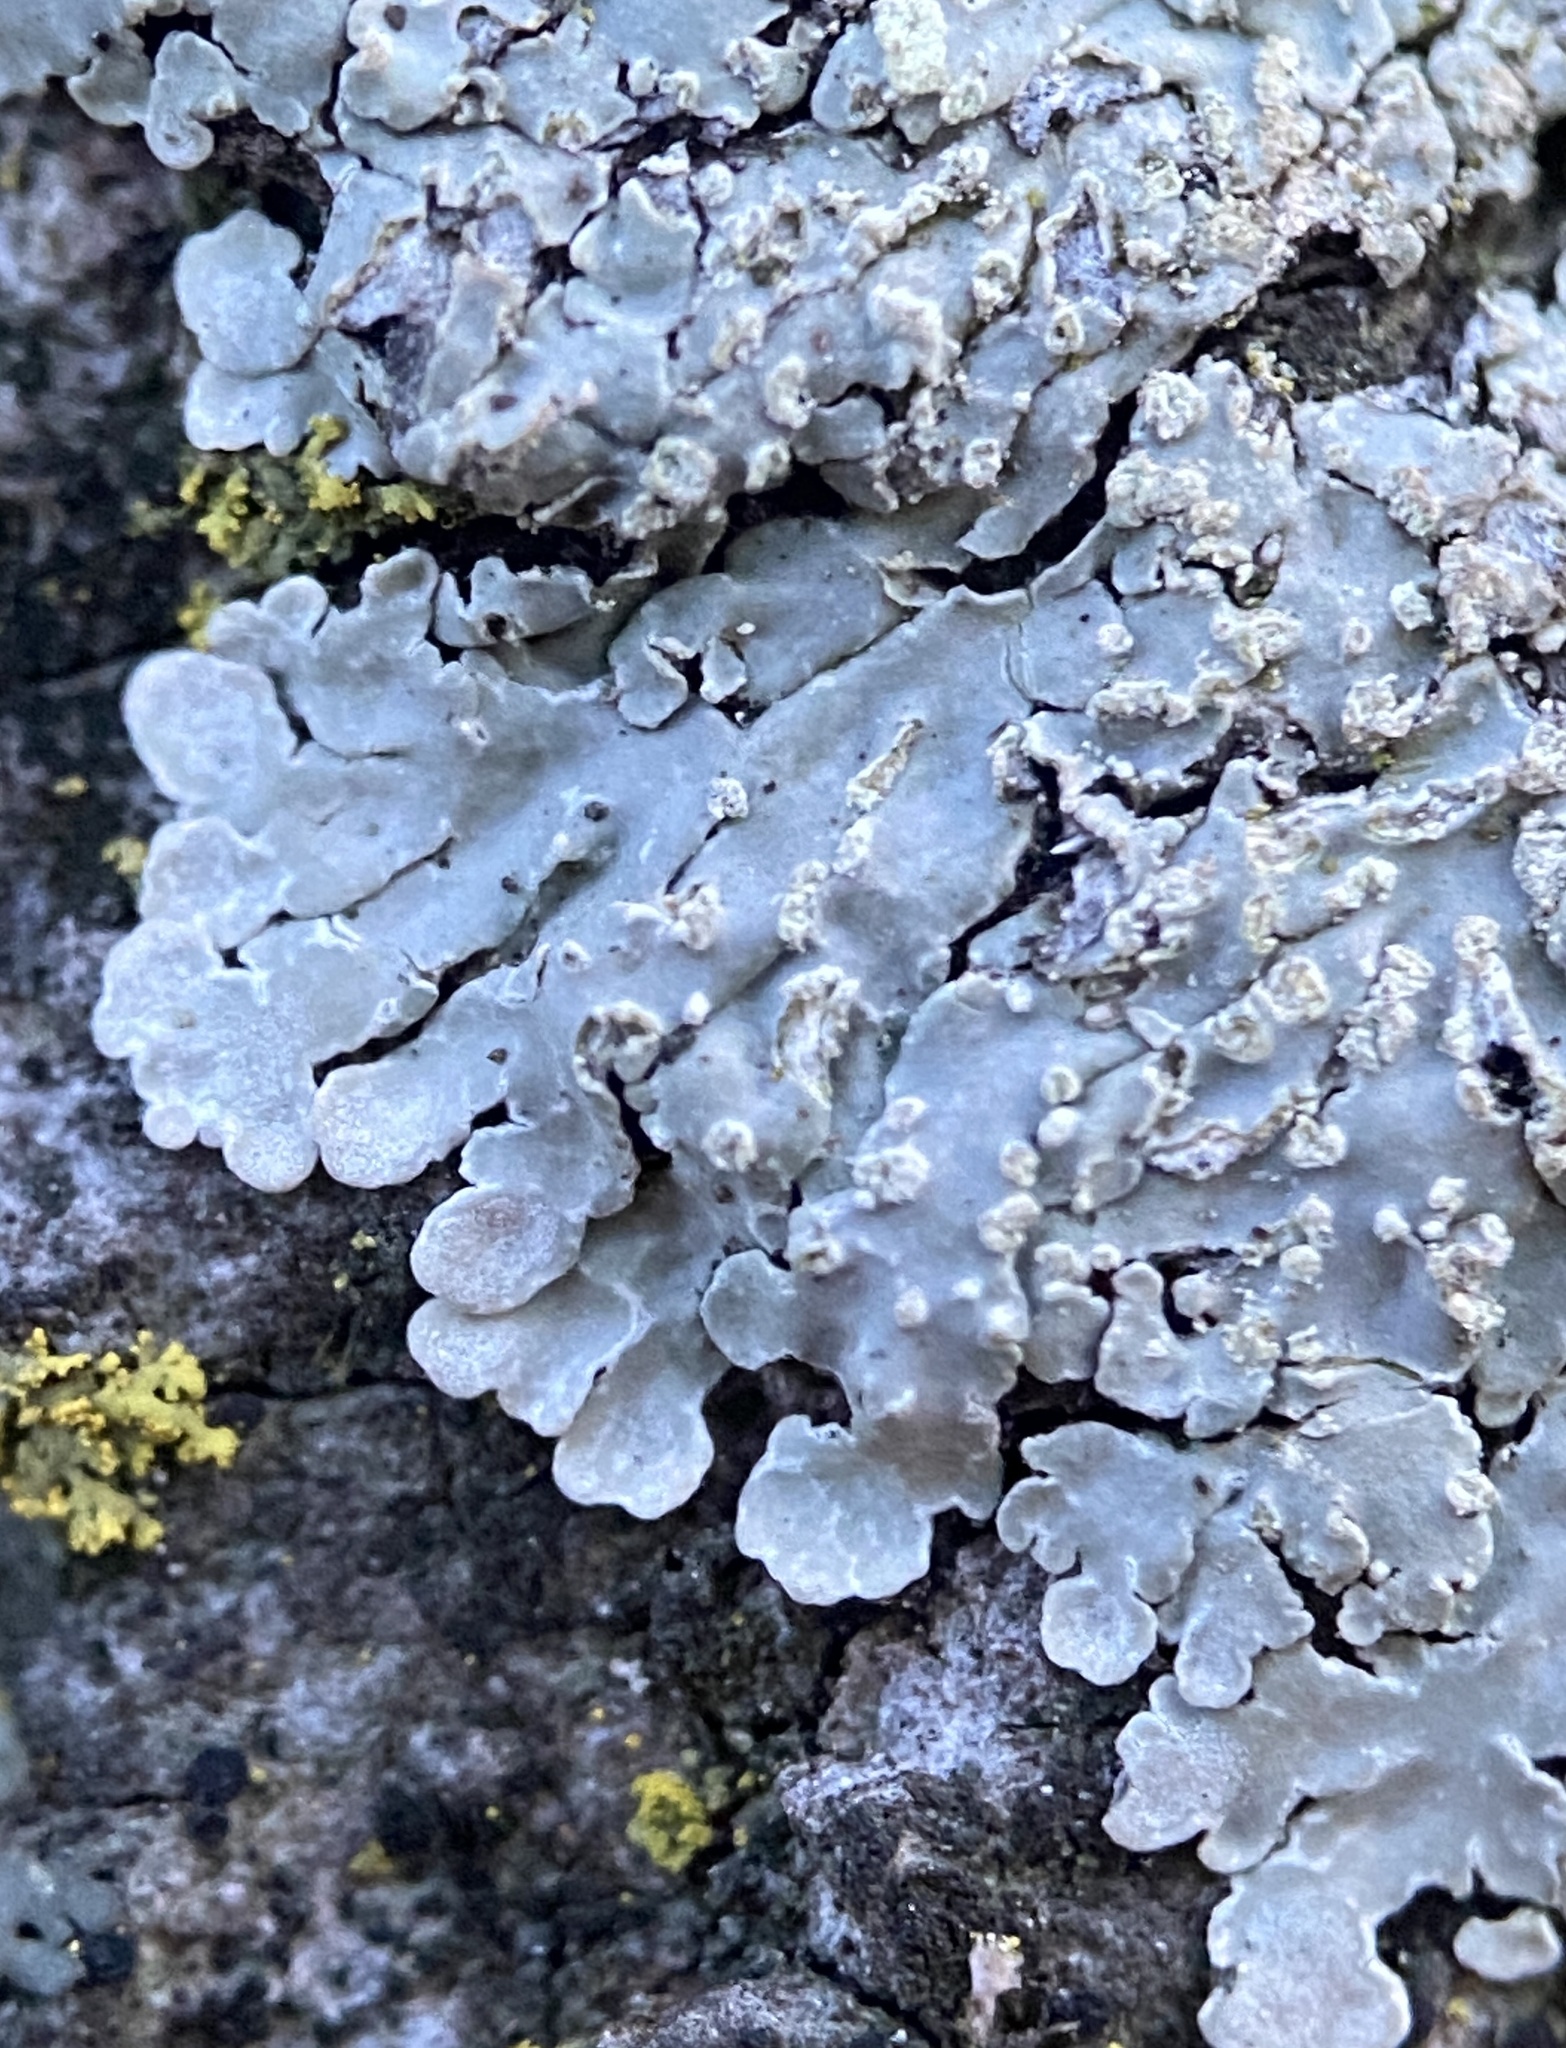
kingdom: Fungi
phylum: Ascomycota
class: Lecanoromycetes
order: Caliciales
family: Caliciaceae
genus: Pyxine
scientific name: Pyxine subcinerea
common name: Mustard lichen
